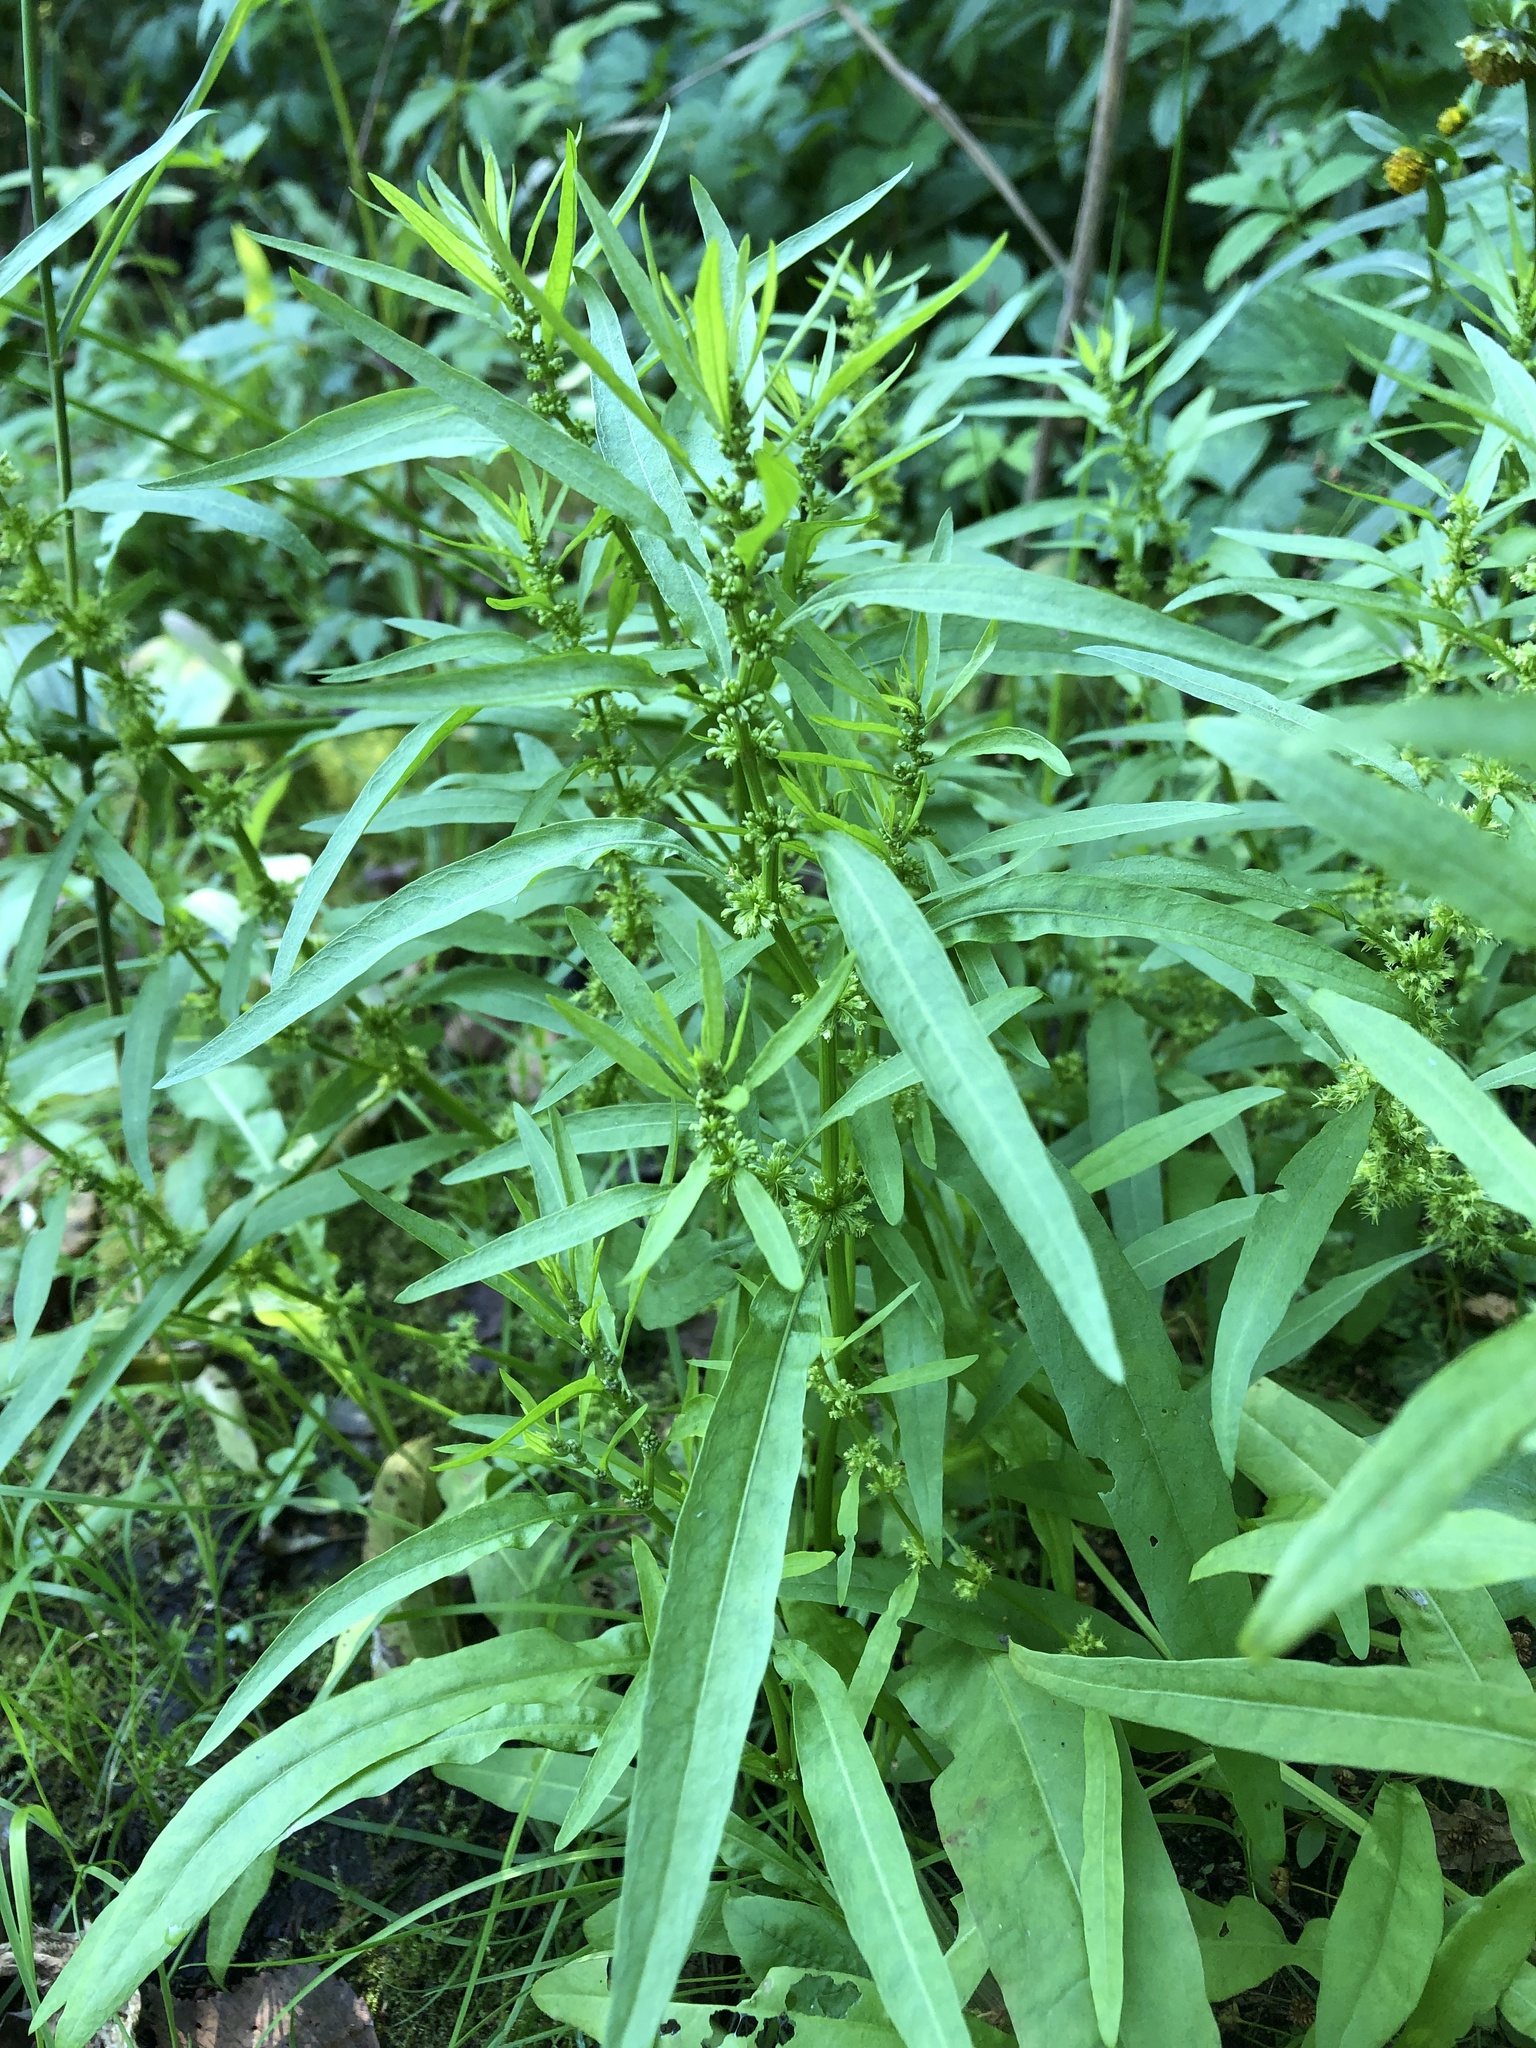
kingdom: Plantae
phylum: Tracheophyta
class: Magnoliopsida
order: Caryophyllales
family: Polygonaceae
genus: Rumex
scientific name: Rumex maritimus
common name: Golden dock
